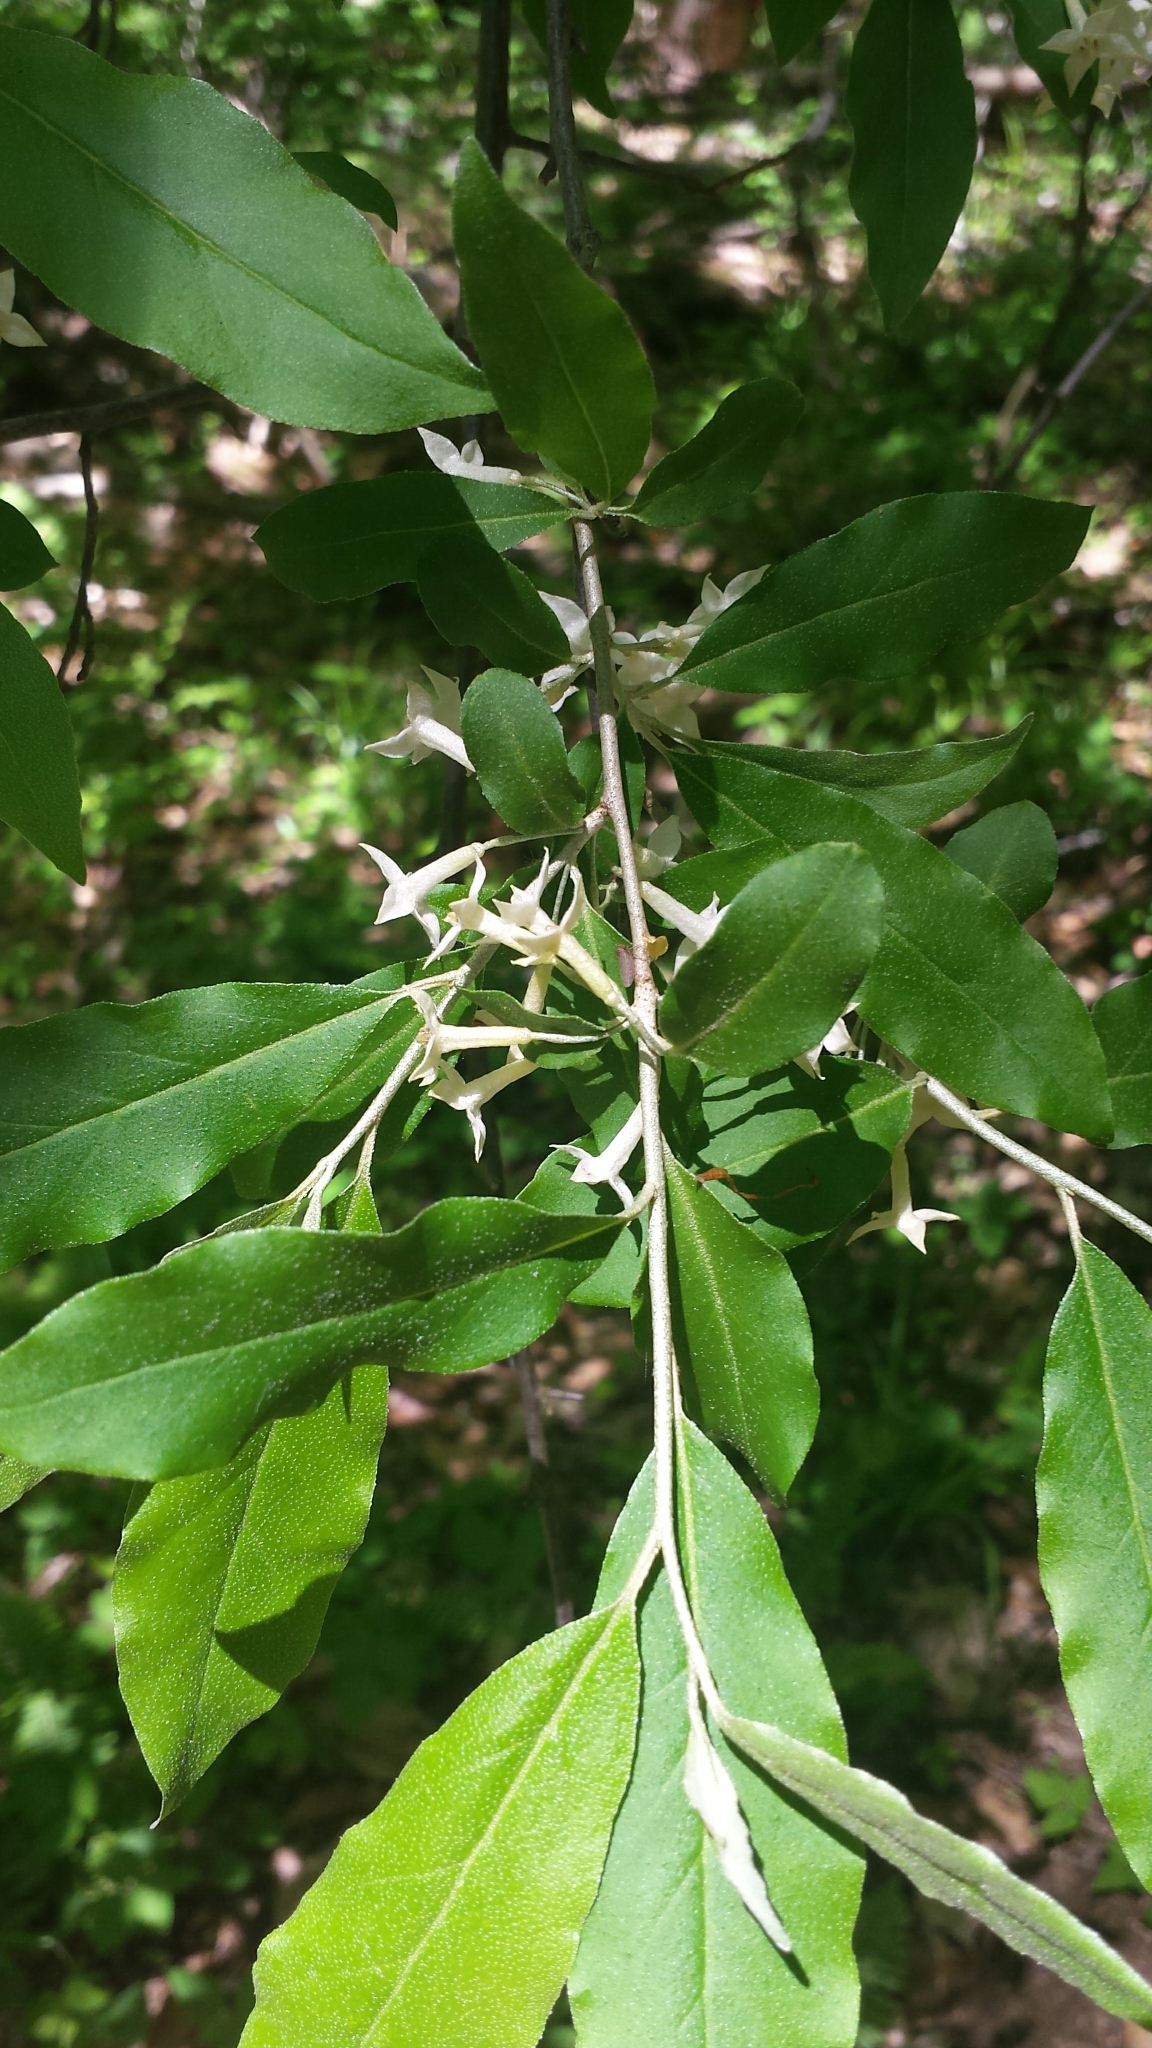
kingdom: Plantae
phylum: Tracheophyta
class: Magnoliopsida
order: Rosales
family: Elaeagnaceae
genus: Elaeagnus
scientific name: Elaeagnus umbellata
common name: Autumn olive
